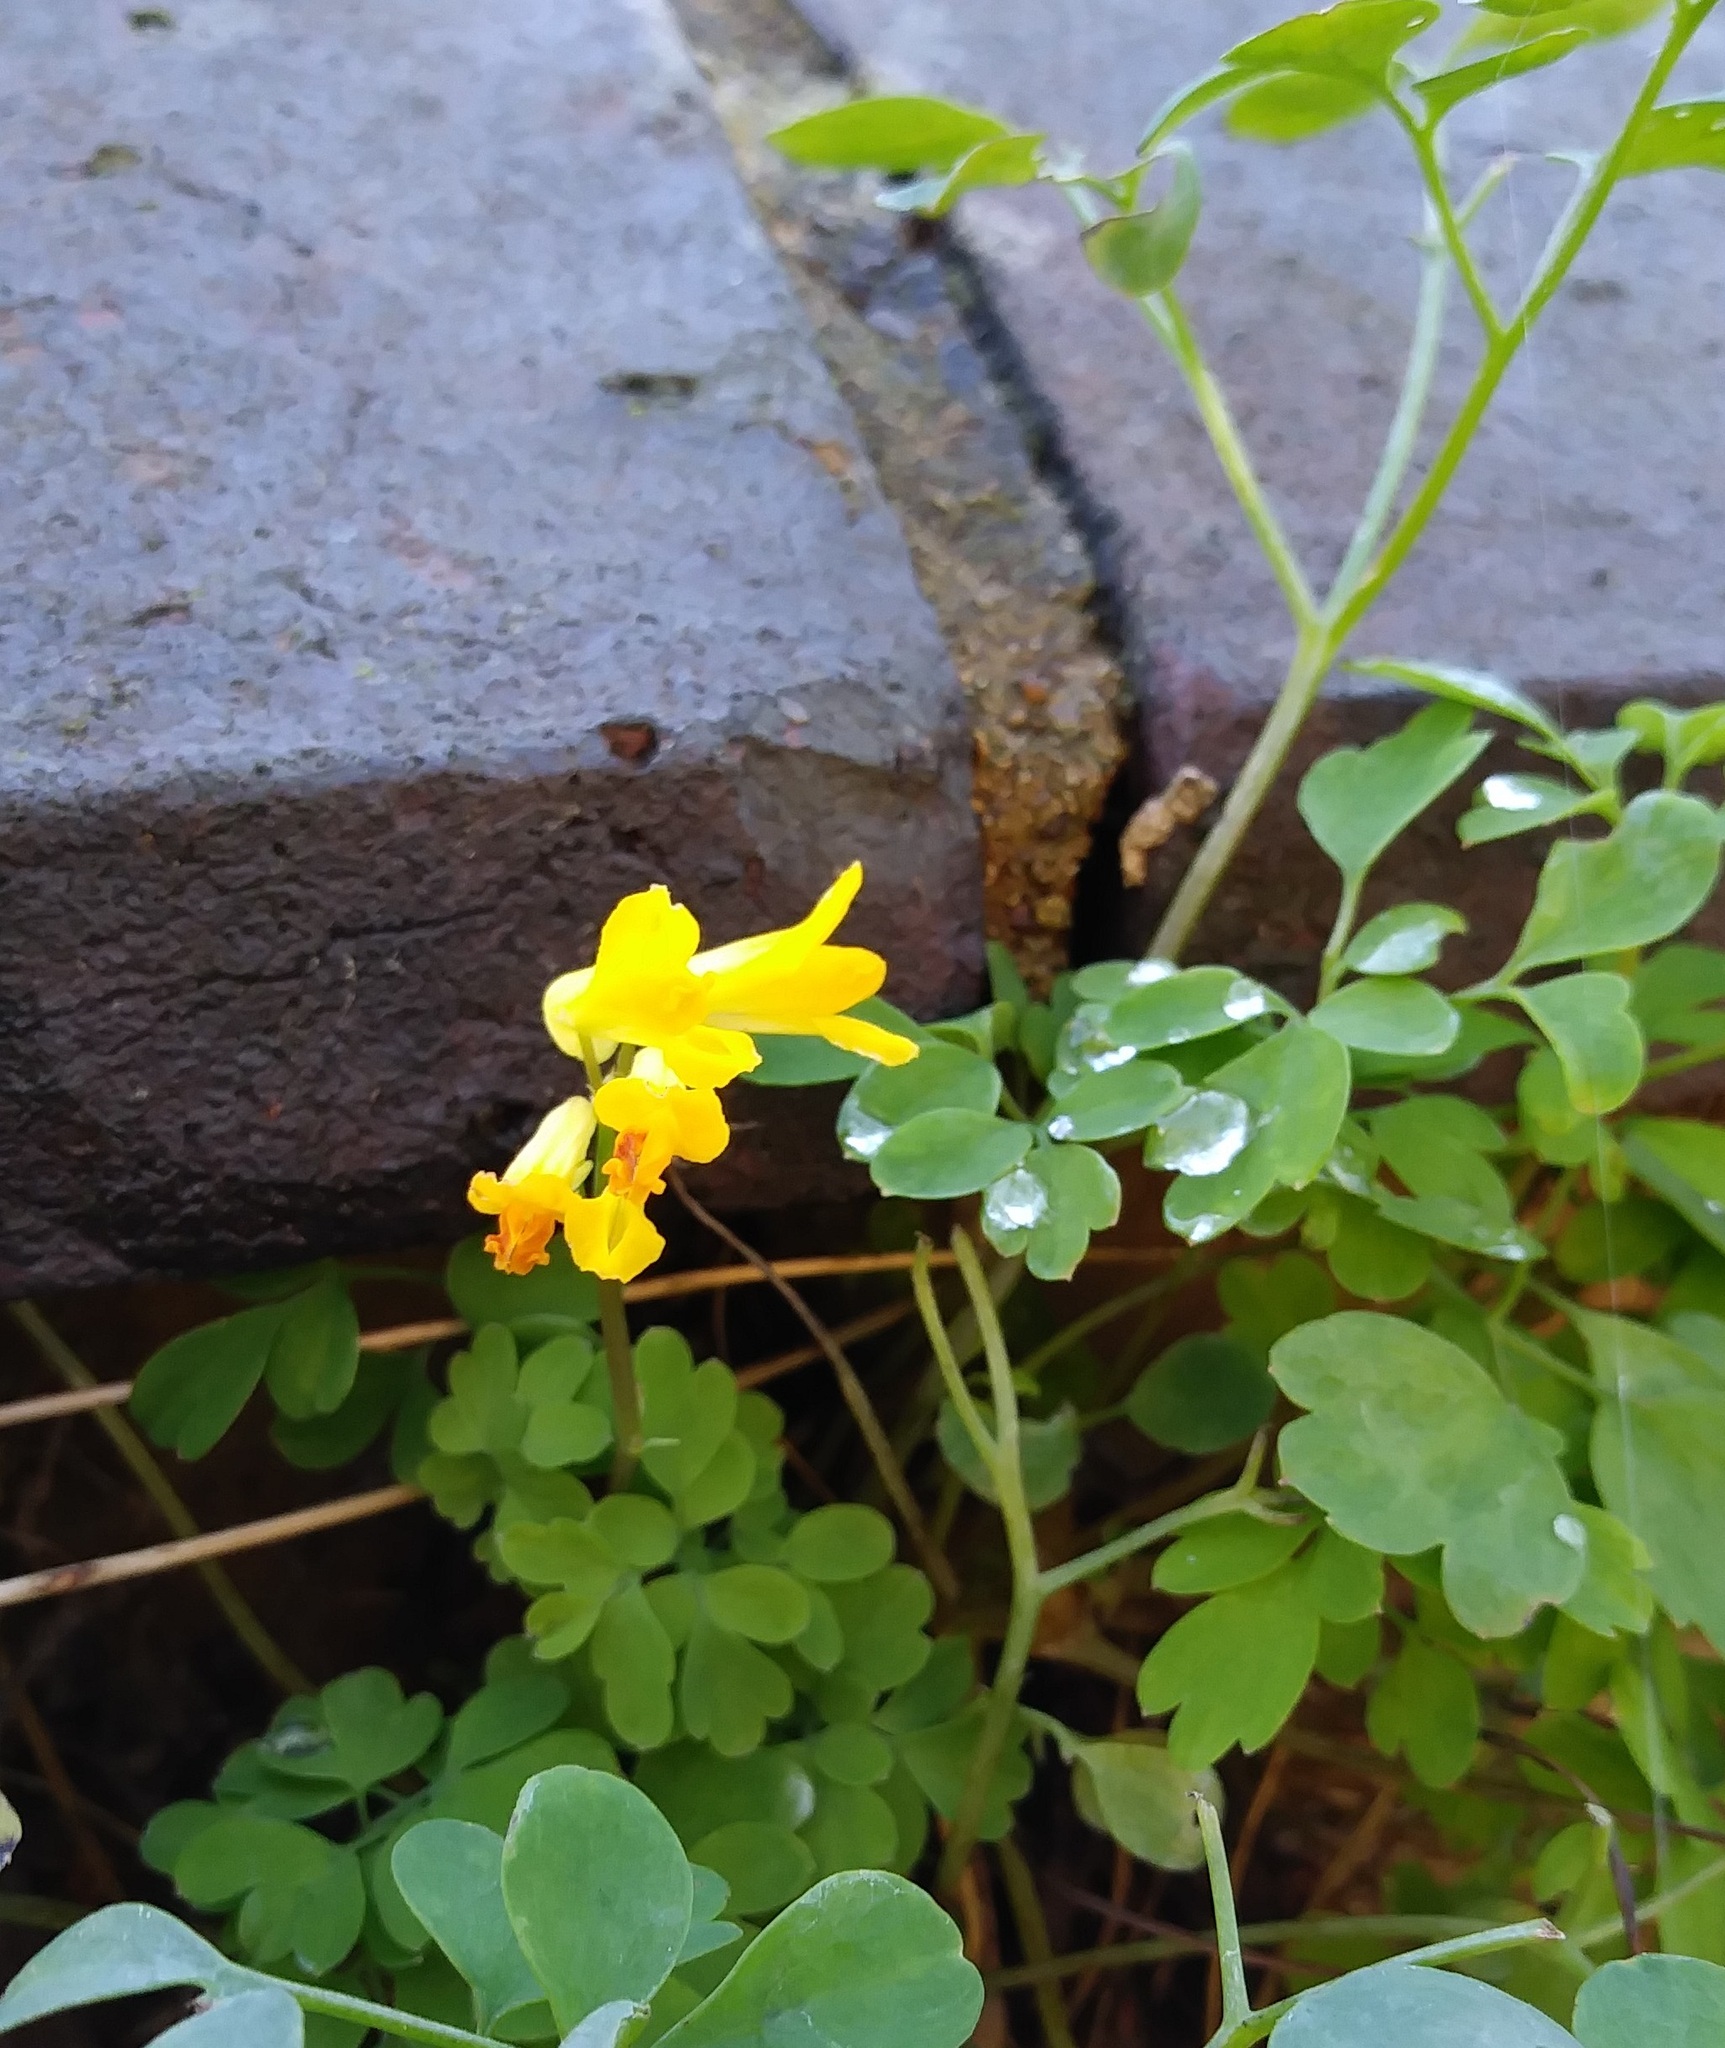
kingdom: Plantae
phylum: Tracheophyta
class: Magnoliopsida
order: Ranunculales
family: Papaveraceae
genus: Pseudofumaria
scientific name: Pseudofumaria lutea
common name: Yellow corydalis
